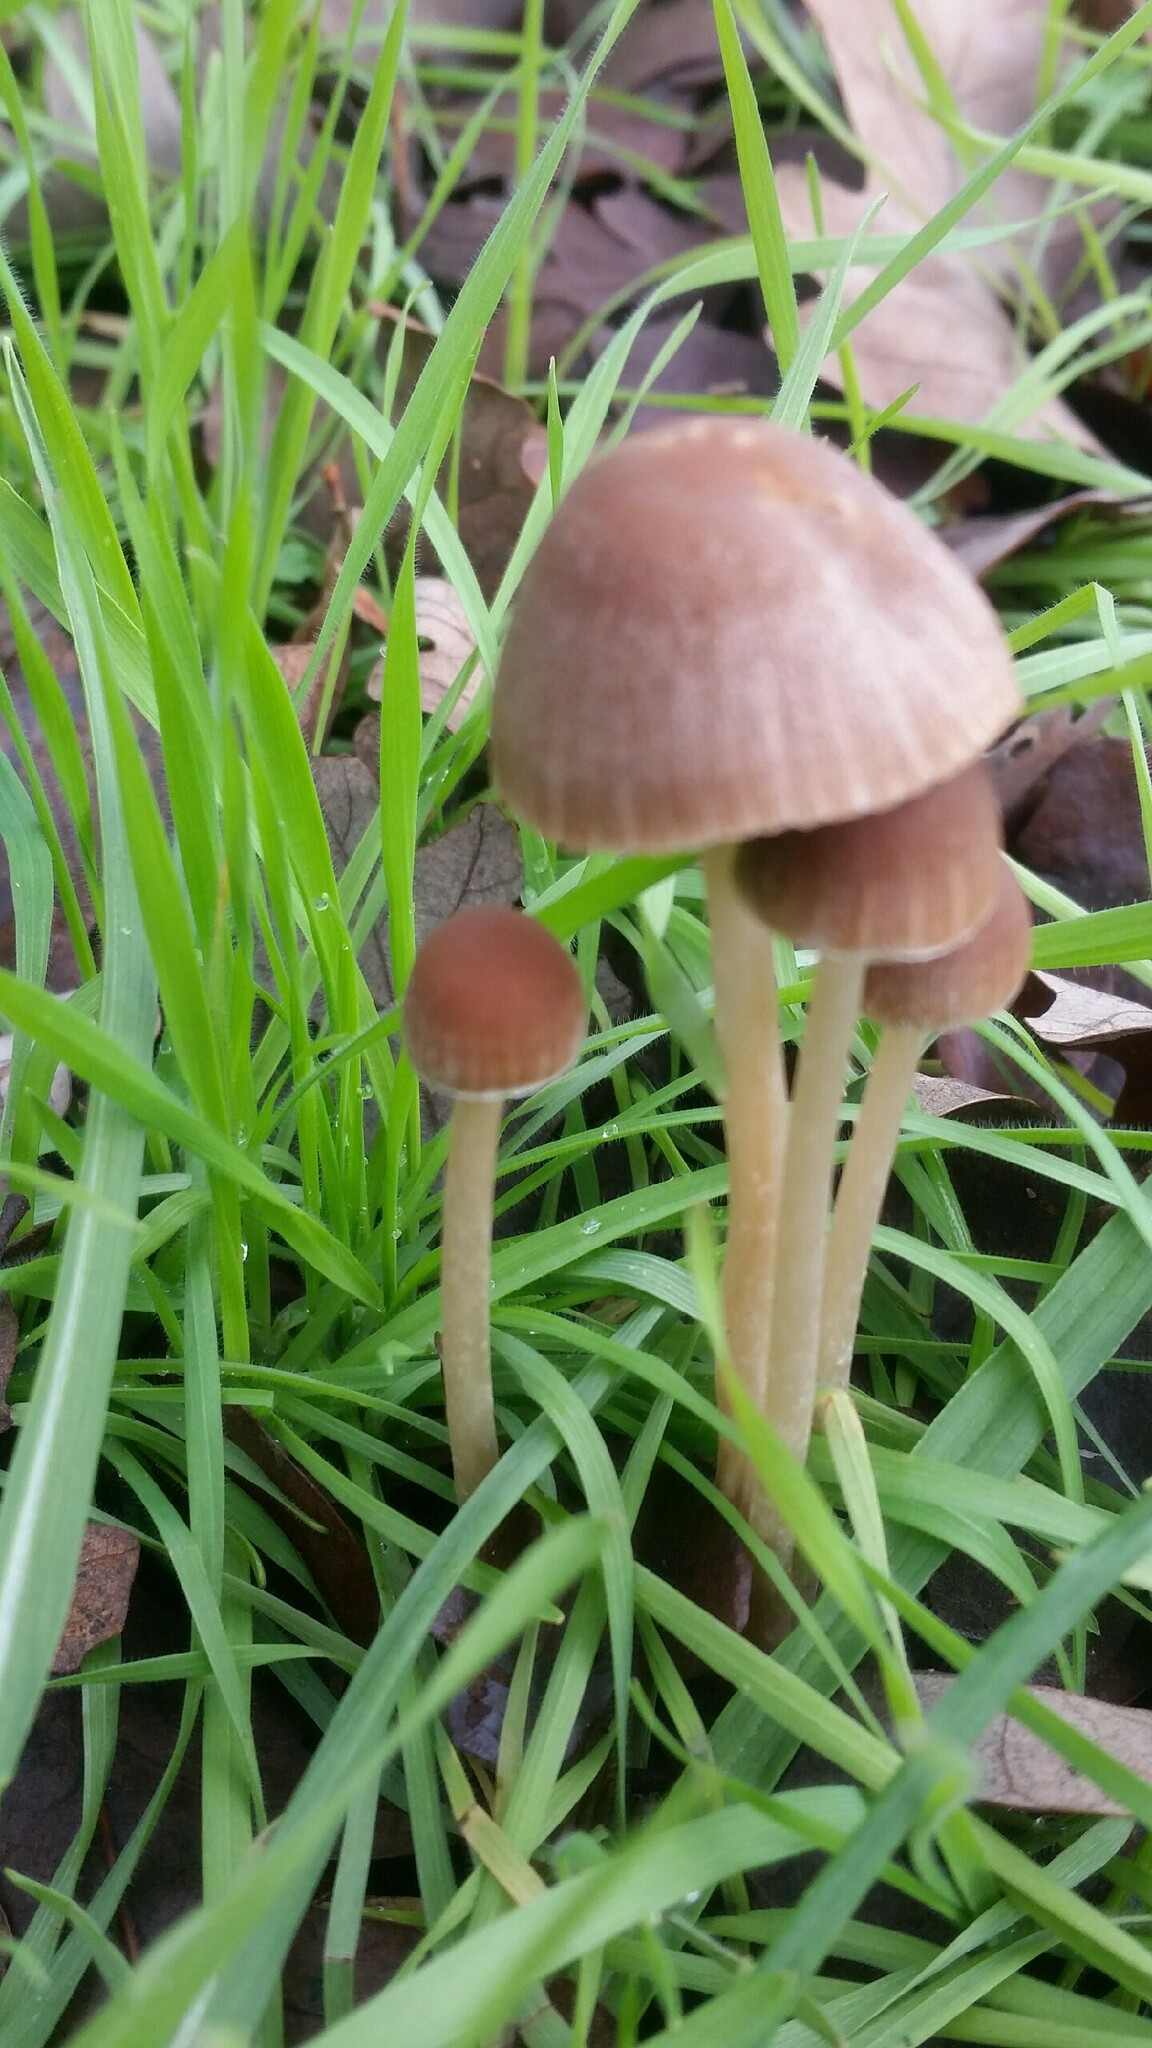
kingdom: Fungi
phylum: Basidiomycota
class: Agaricomycetes
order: Agaricales
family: Psathyrellaceae
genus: Psathyrella
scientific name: Psathyrella corrugis
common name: Red edge brittlestem
